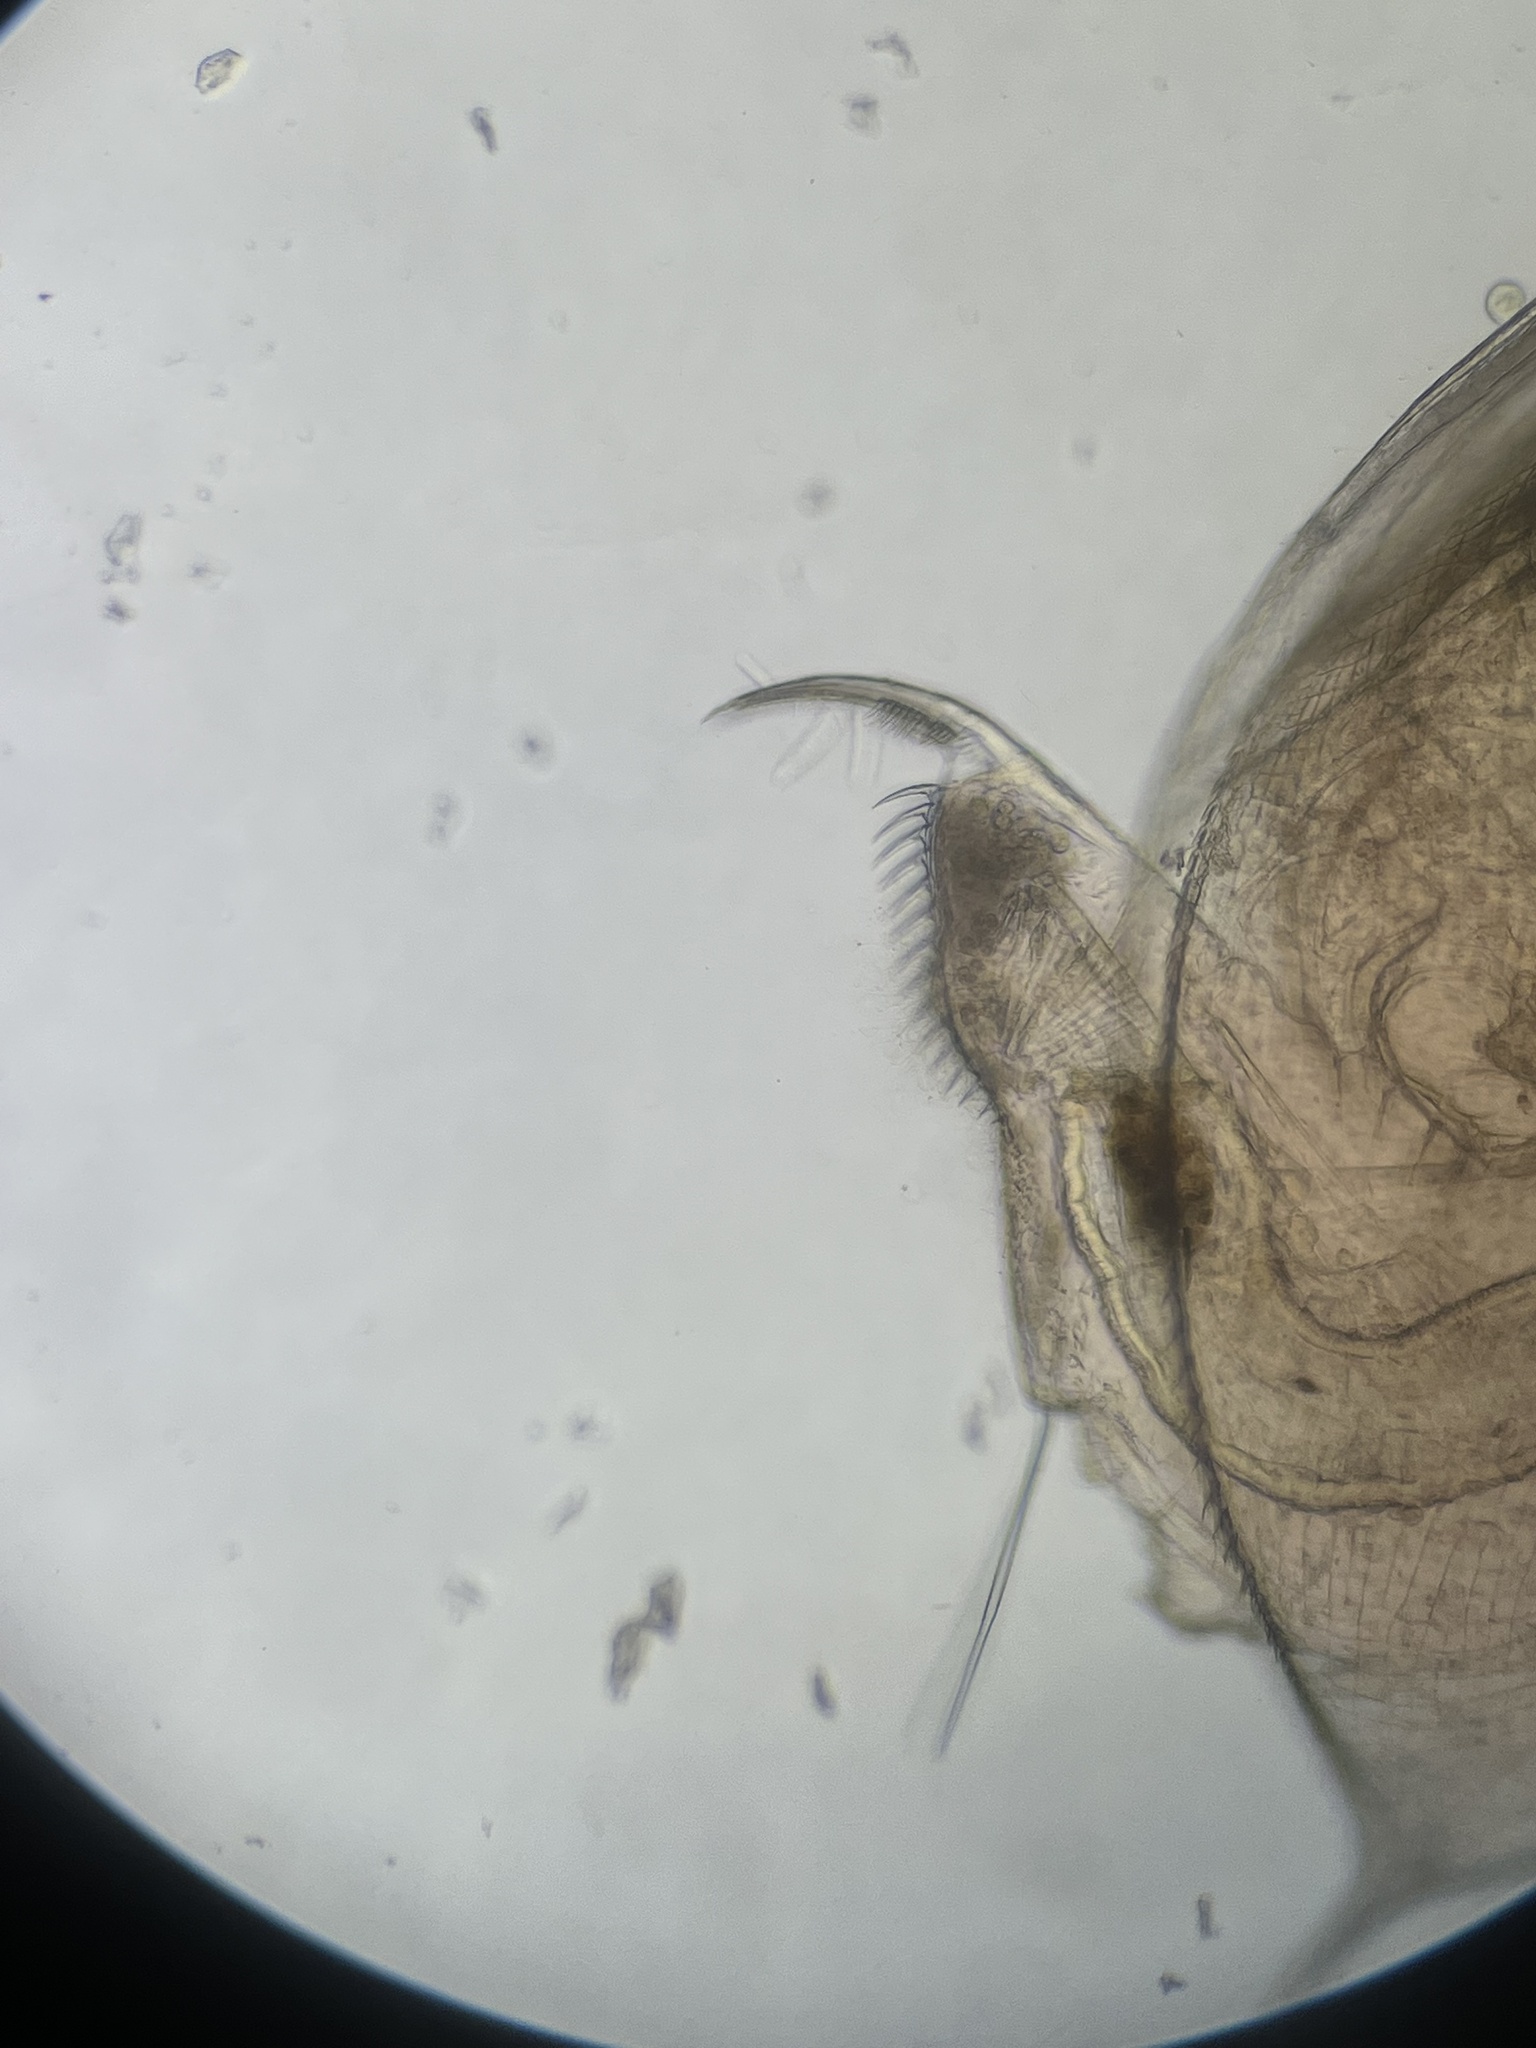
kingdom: Animalia
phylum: Arthropoda
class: Branchiopoda
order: Diplostraca
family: Daphniidae
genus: Daphnia
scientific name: Daphnia pulex
